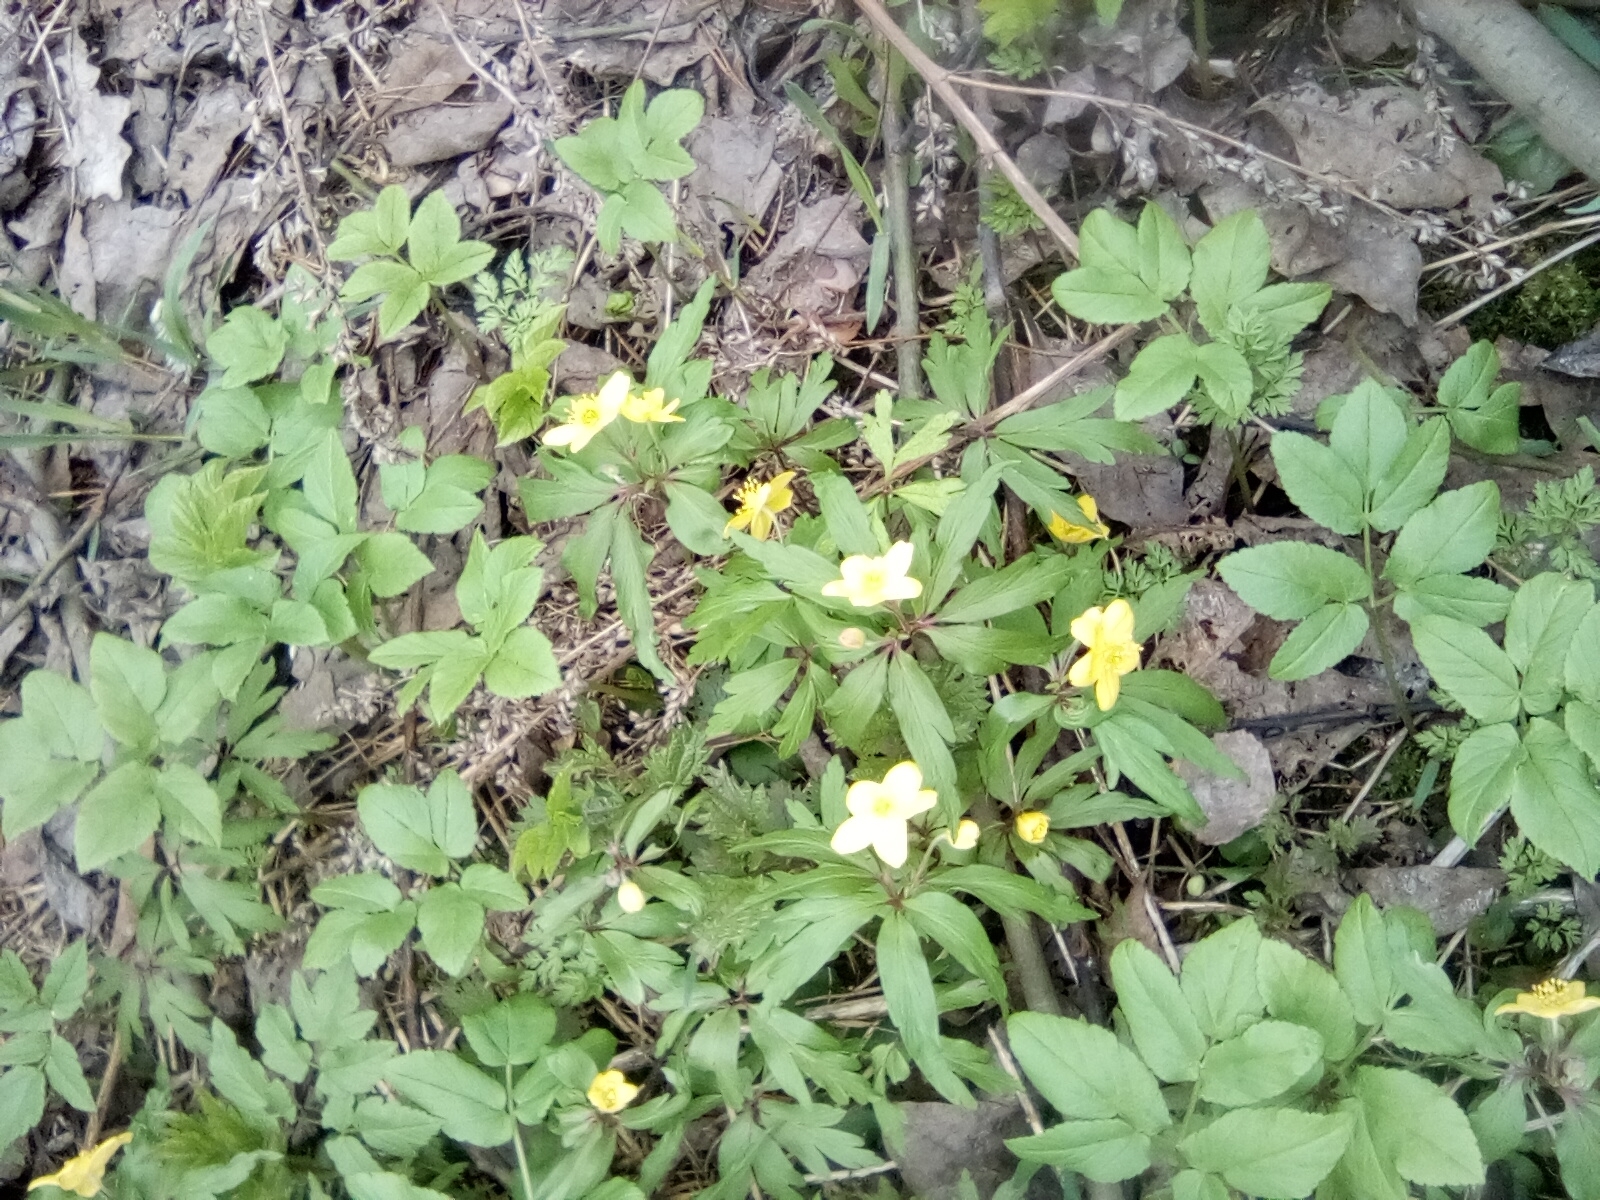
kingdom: Plantae
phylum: Tracheophyta
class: Magnoliopsida
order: Ranunculales
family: Ranunculaceae
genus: Anemone
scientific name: Anemone ranunculoides
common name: Yellow anemone
